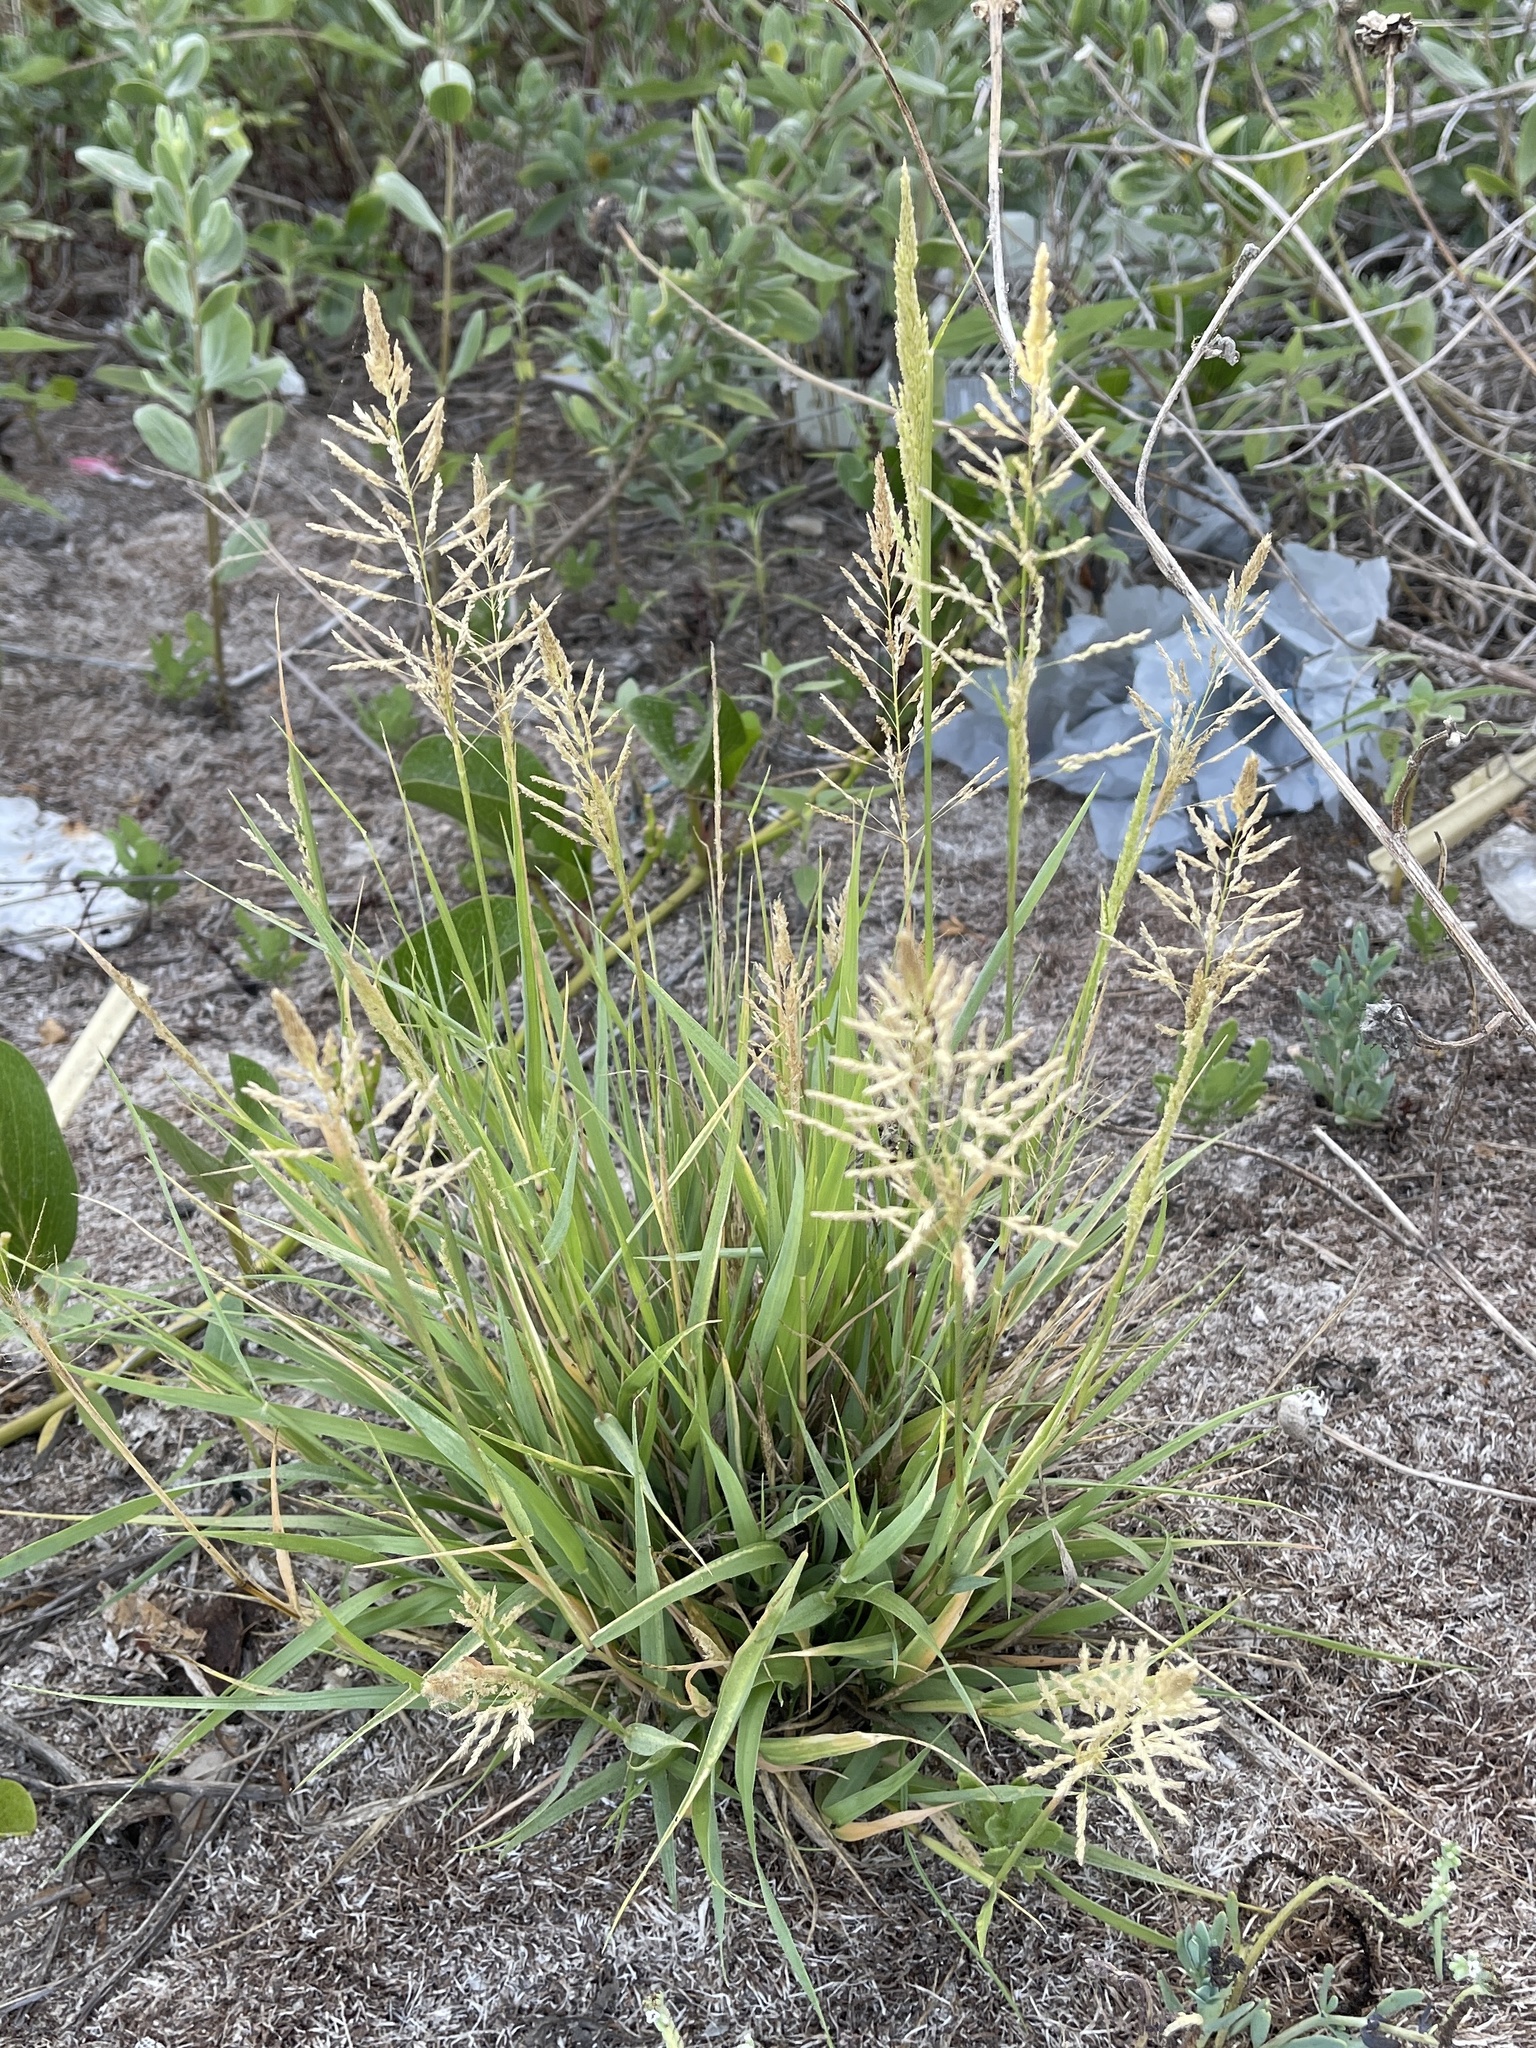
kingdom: Plantae
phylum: Tracheophyta
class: Liliopsida
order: Poales
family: Poaceae
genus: Sporobolus
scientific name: Sporobolus pyramidatus
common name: Whorled dropseed
